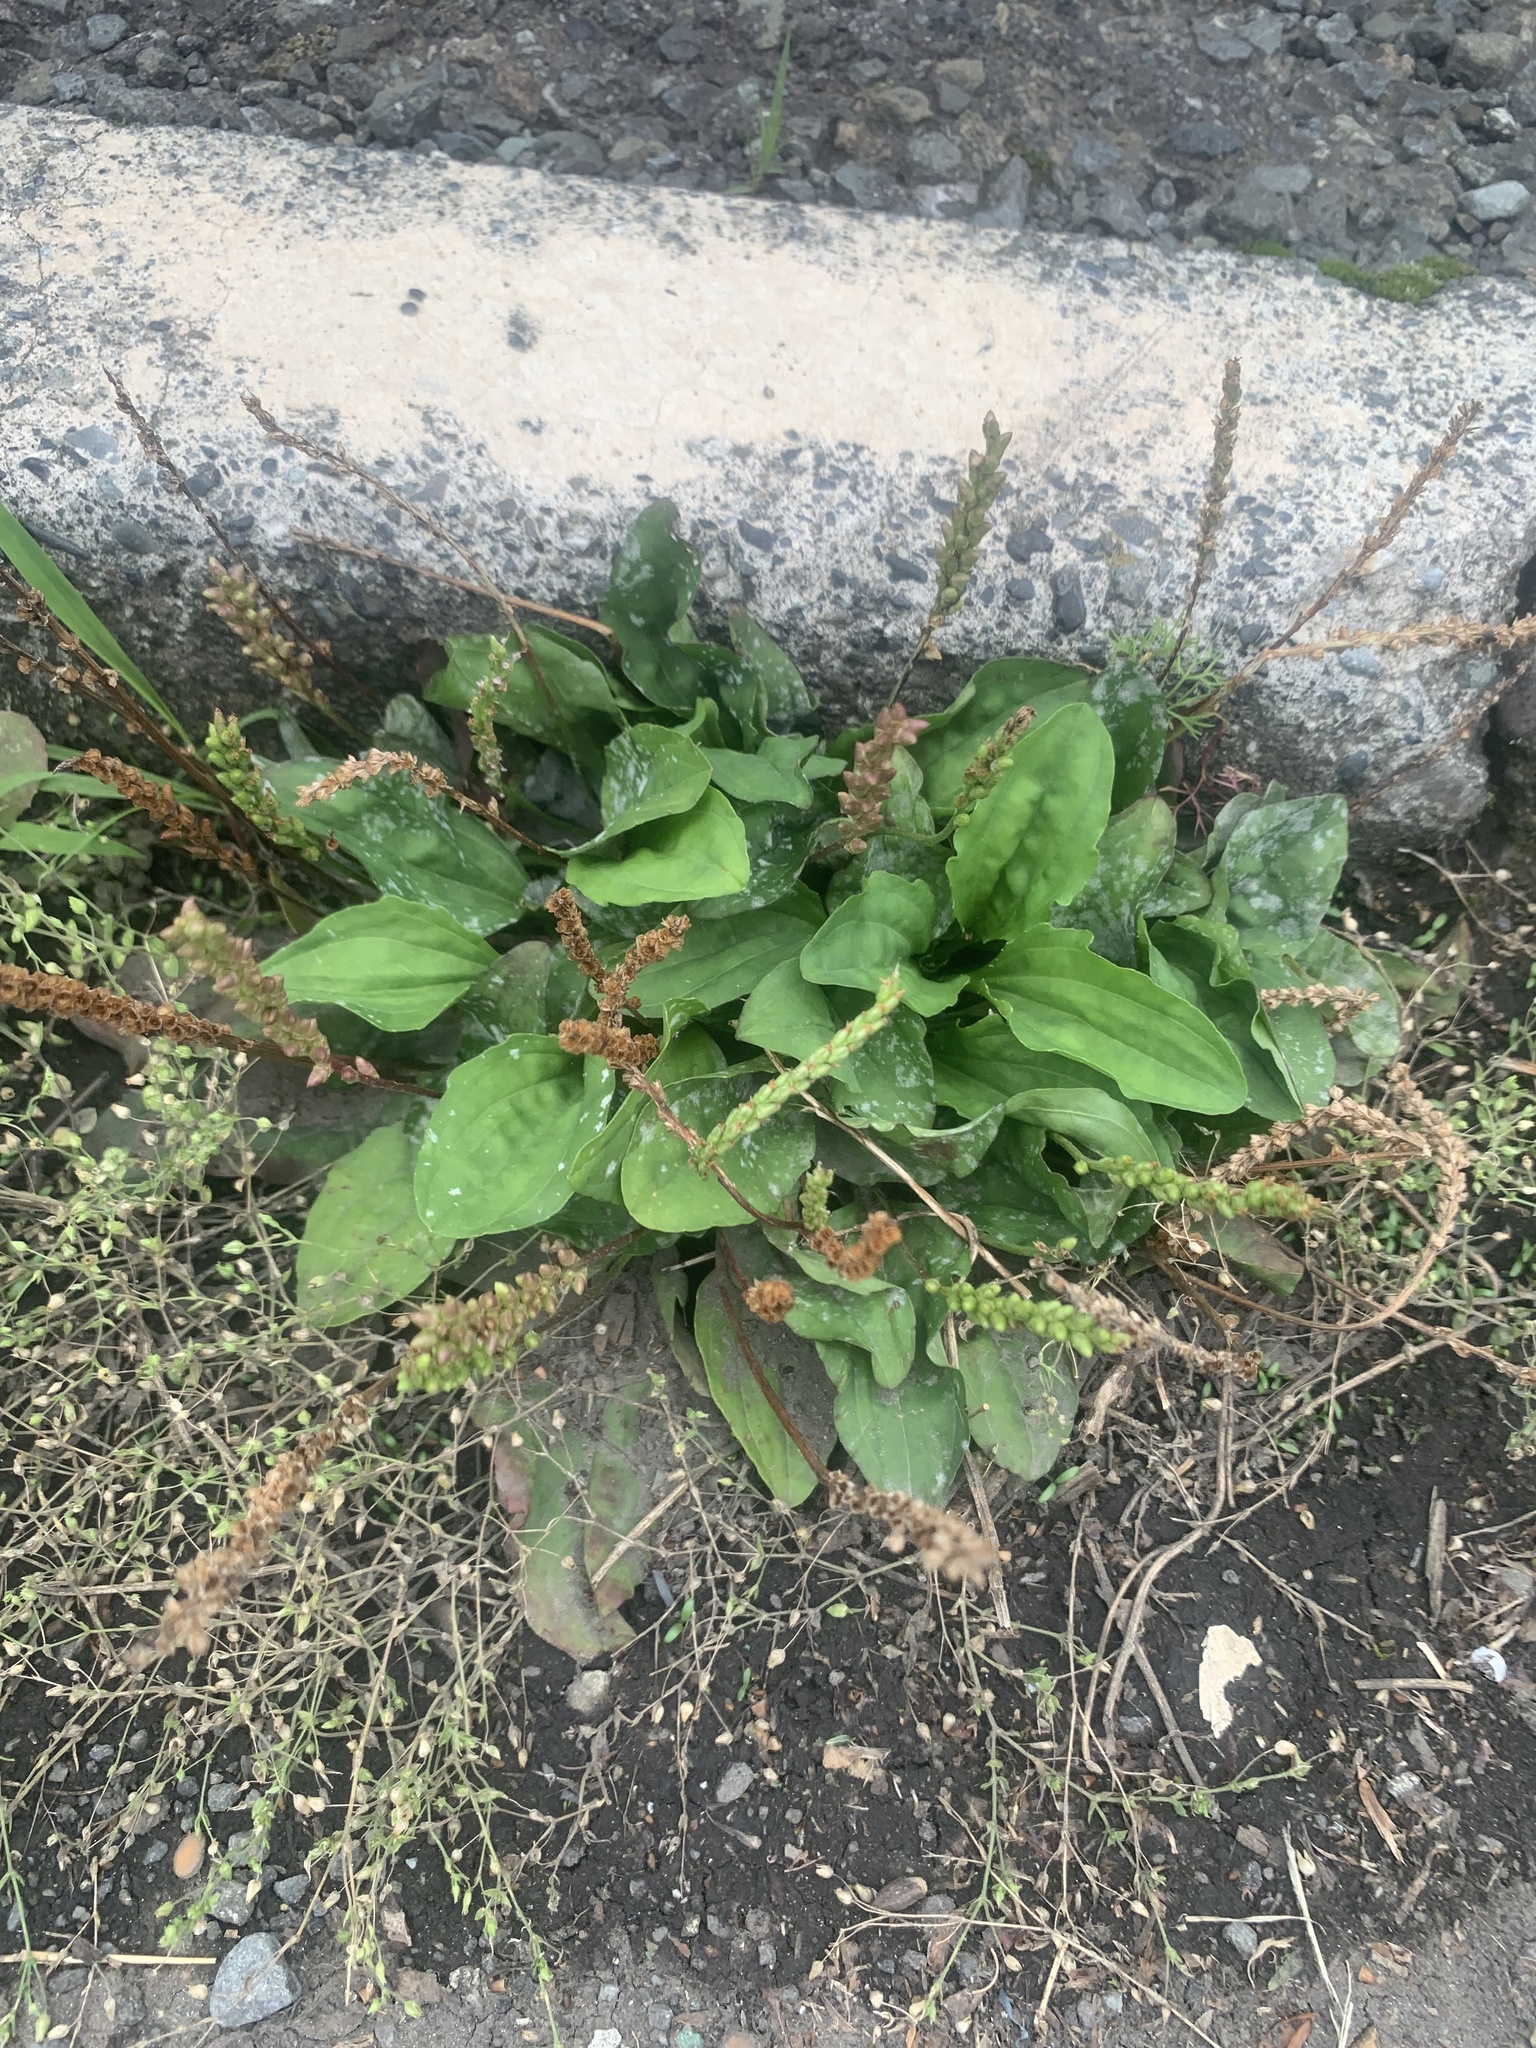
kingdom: Plantae
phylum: Tracheophyta
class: Magnoliopsida
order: Lamiales
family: Plantaginaceae
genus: Plantago
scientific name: Plantago asiatica
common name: Psyllium
